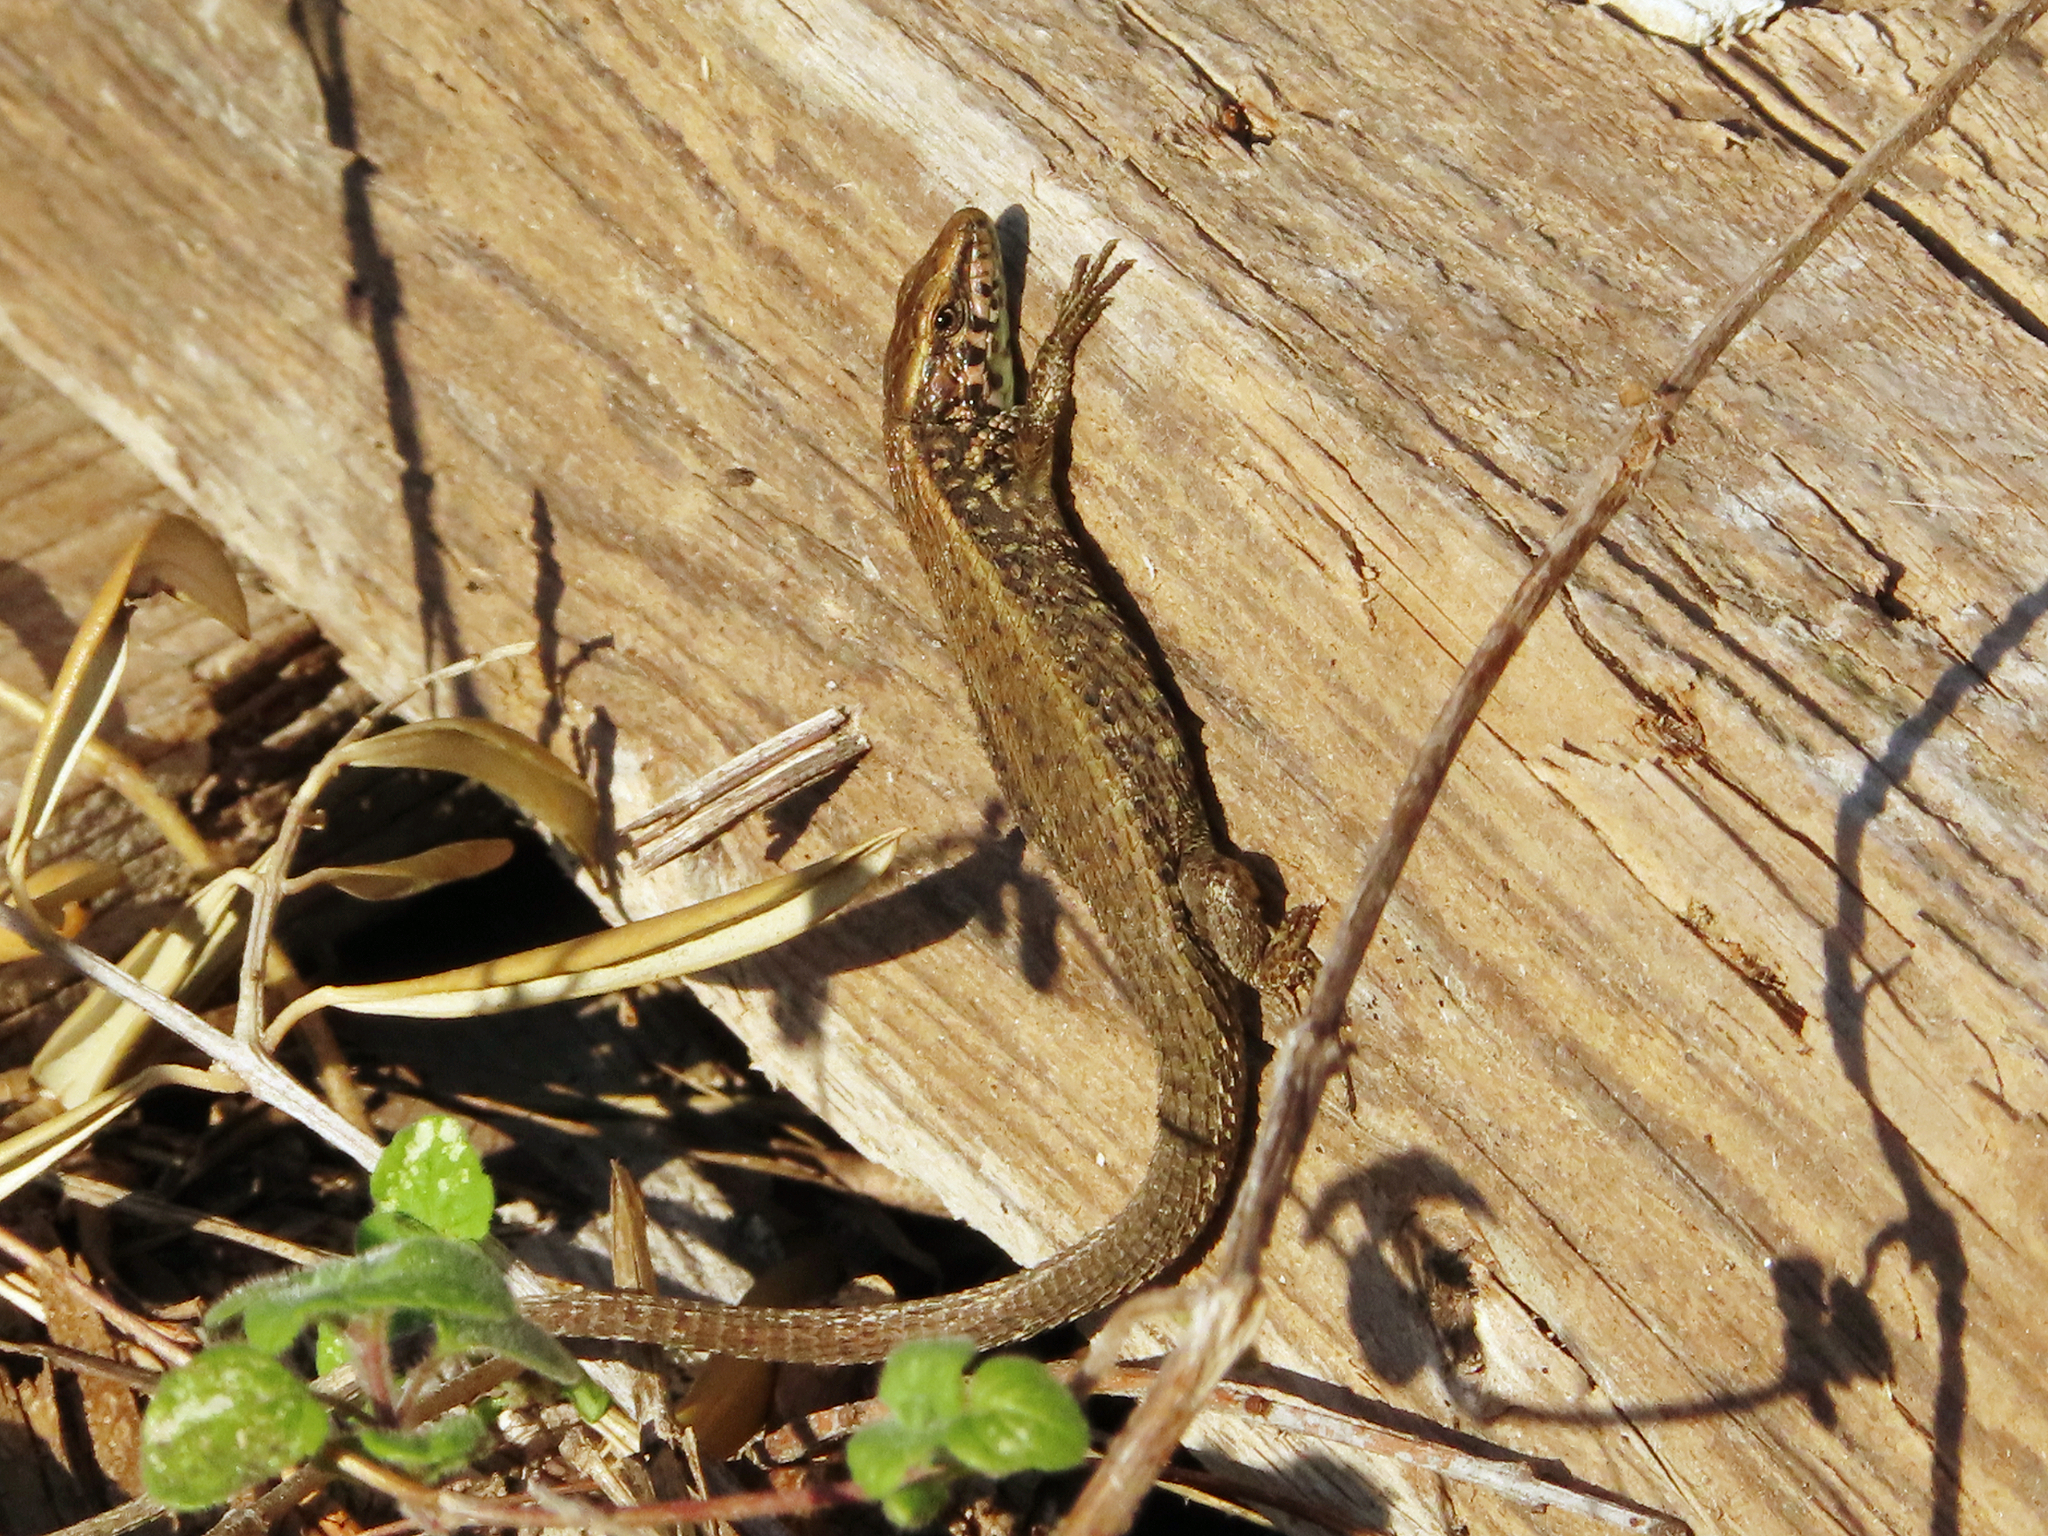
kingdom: Animalia
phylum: Chordata
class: Squamata
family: Lacertidae
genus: Algyroides
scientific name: Algyroides moreoticus
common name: Greek algyroides
